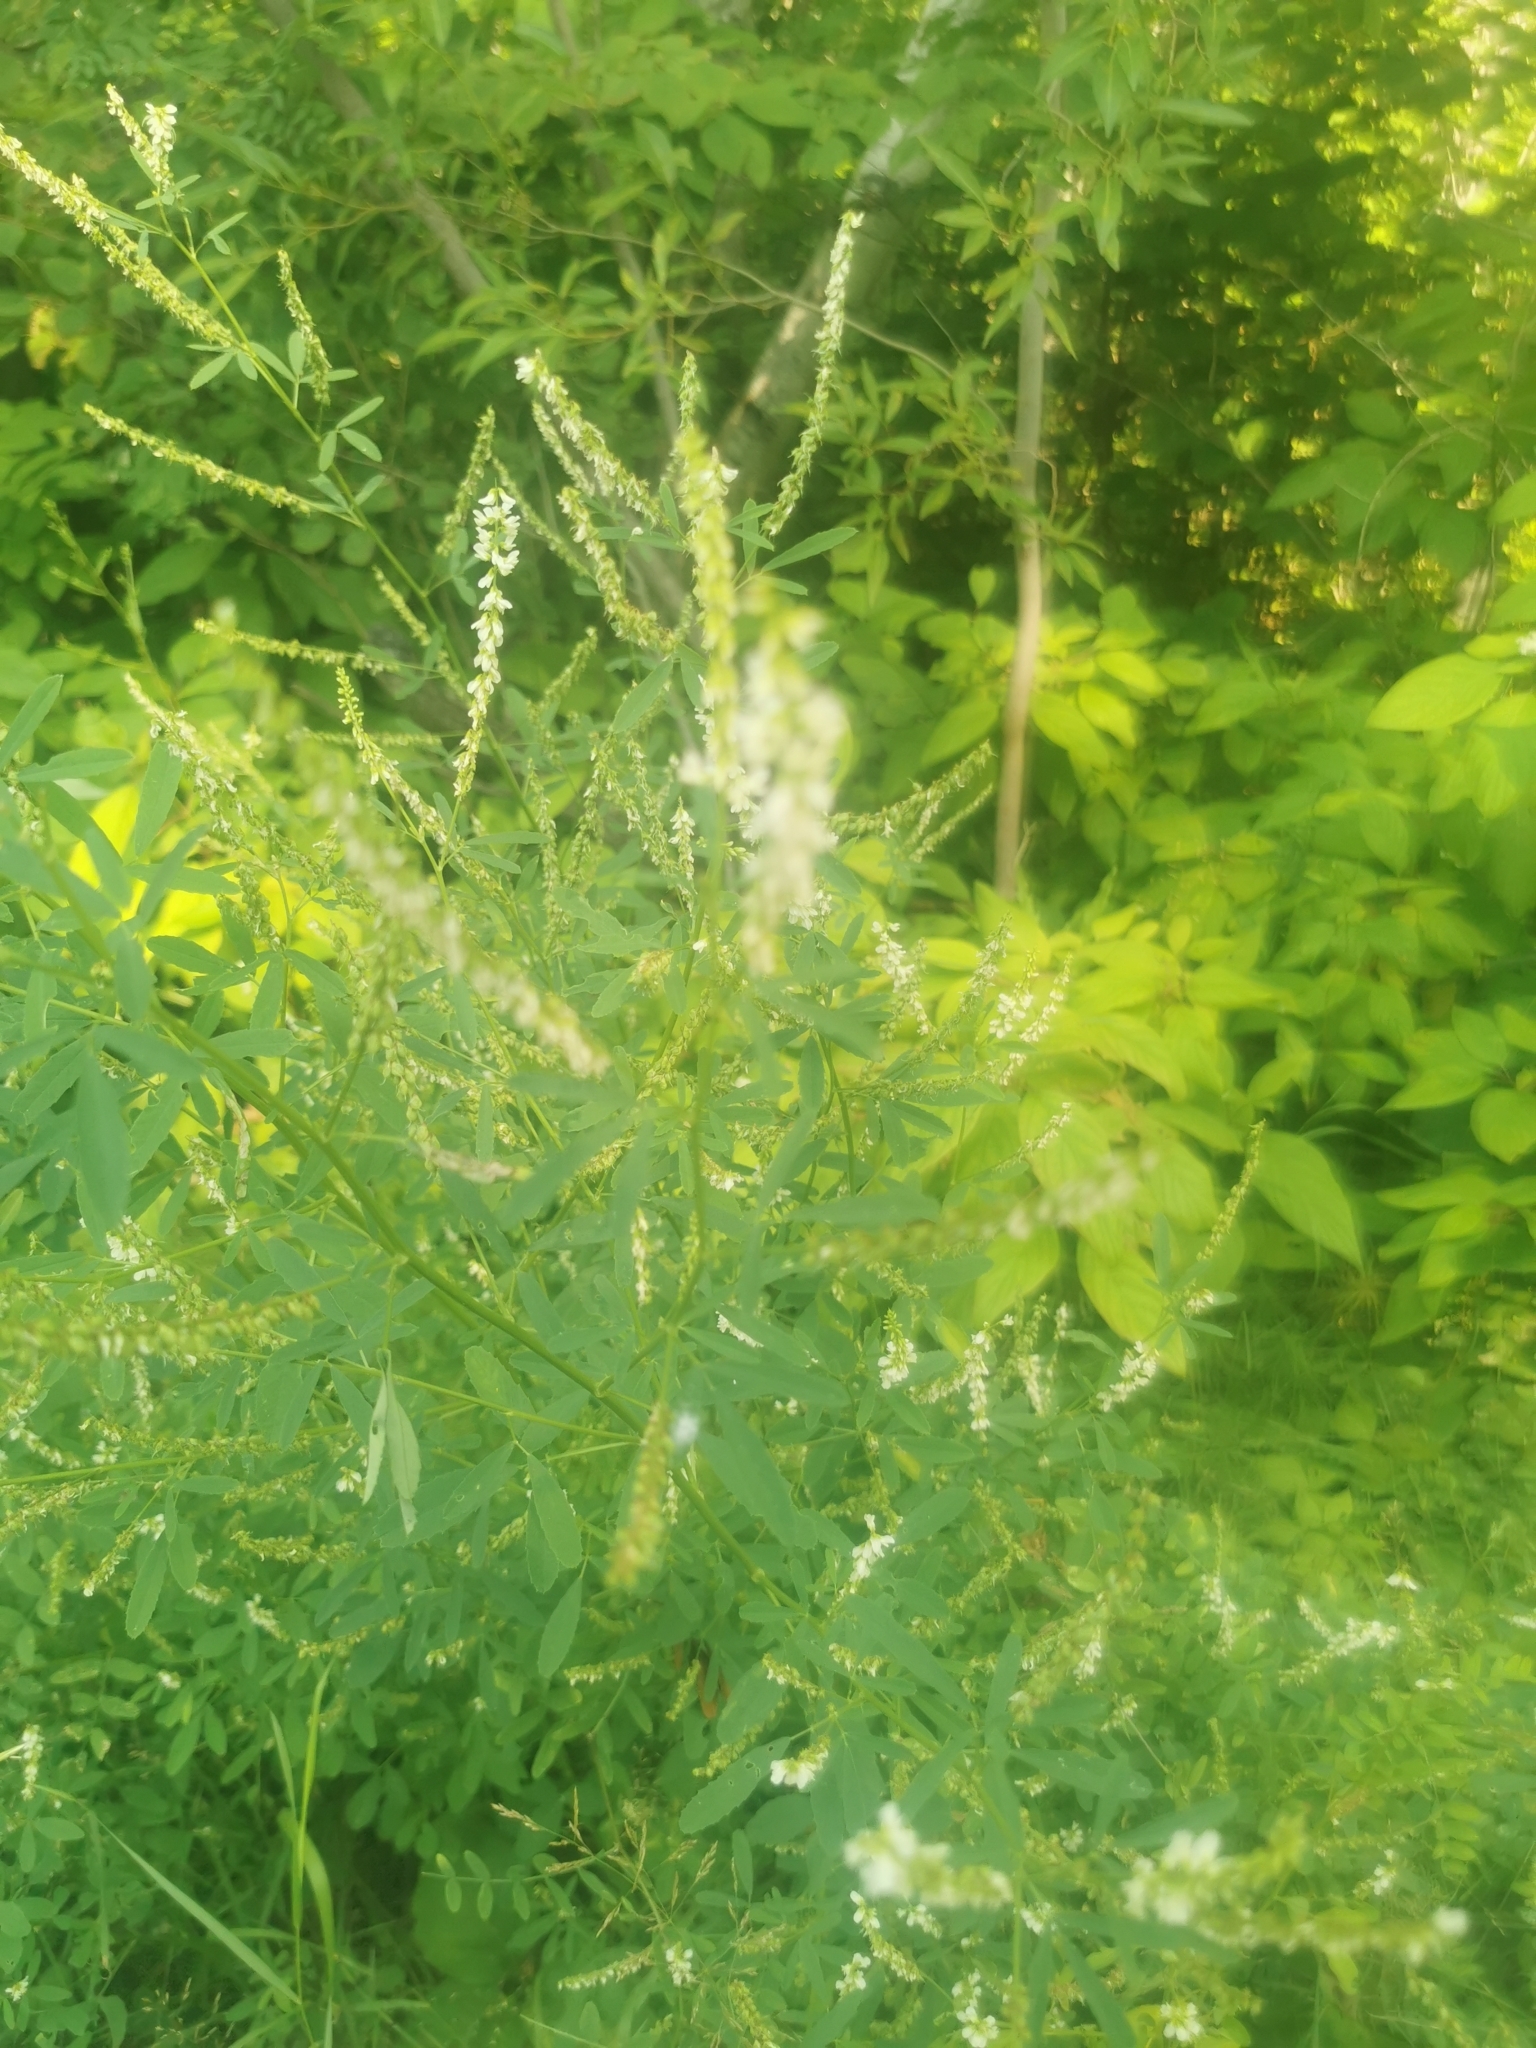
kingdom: Plantae
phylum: Tracheophyta
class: Magnoliopsida
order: Fabales
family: Fabaceae
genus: Melilotus
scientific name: Melilotus albus
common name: White melilot
